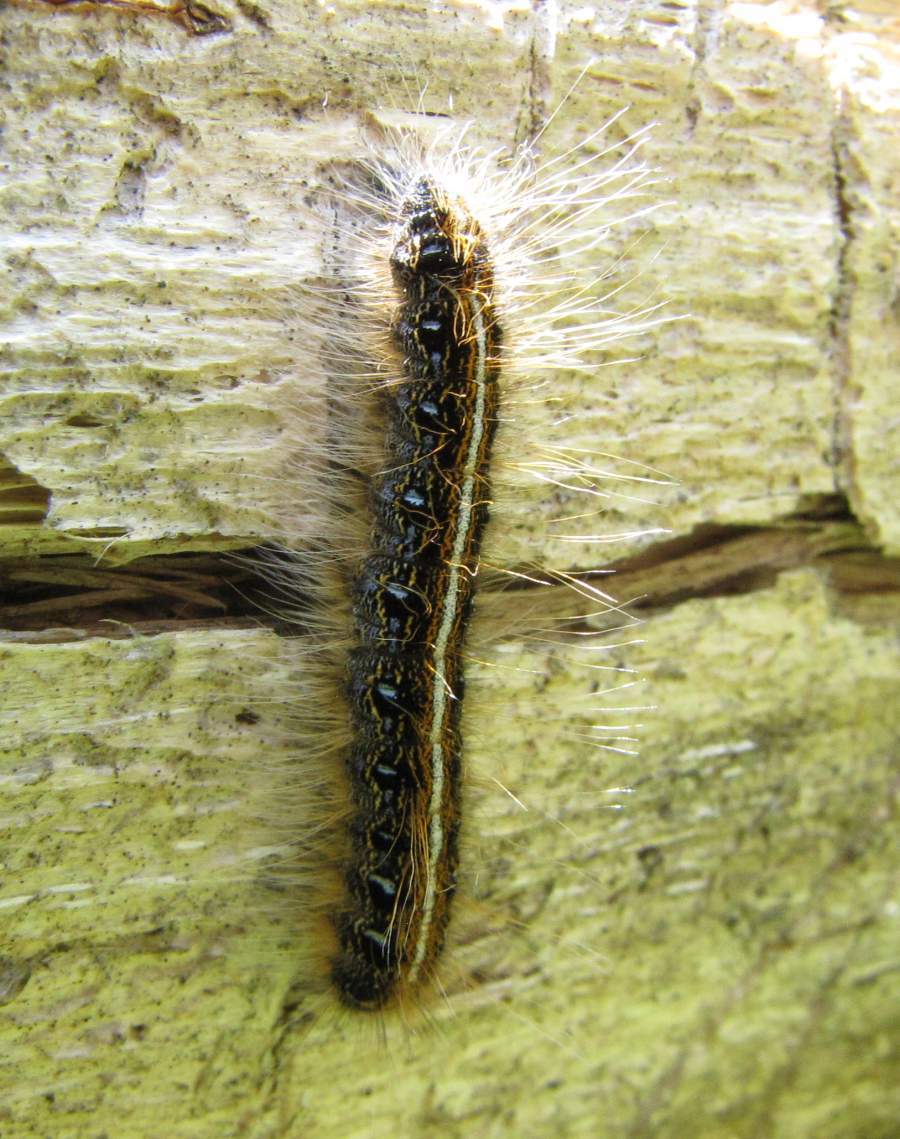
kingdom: Animalia
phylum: Arthropoda
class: Insecta
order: Lepidoptera
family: Lasiocampidae
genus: Malacosoma
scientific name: Malacosoma americana
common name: Eastern tent caterpillar moth
